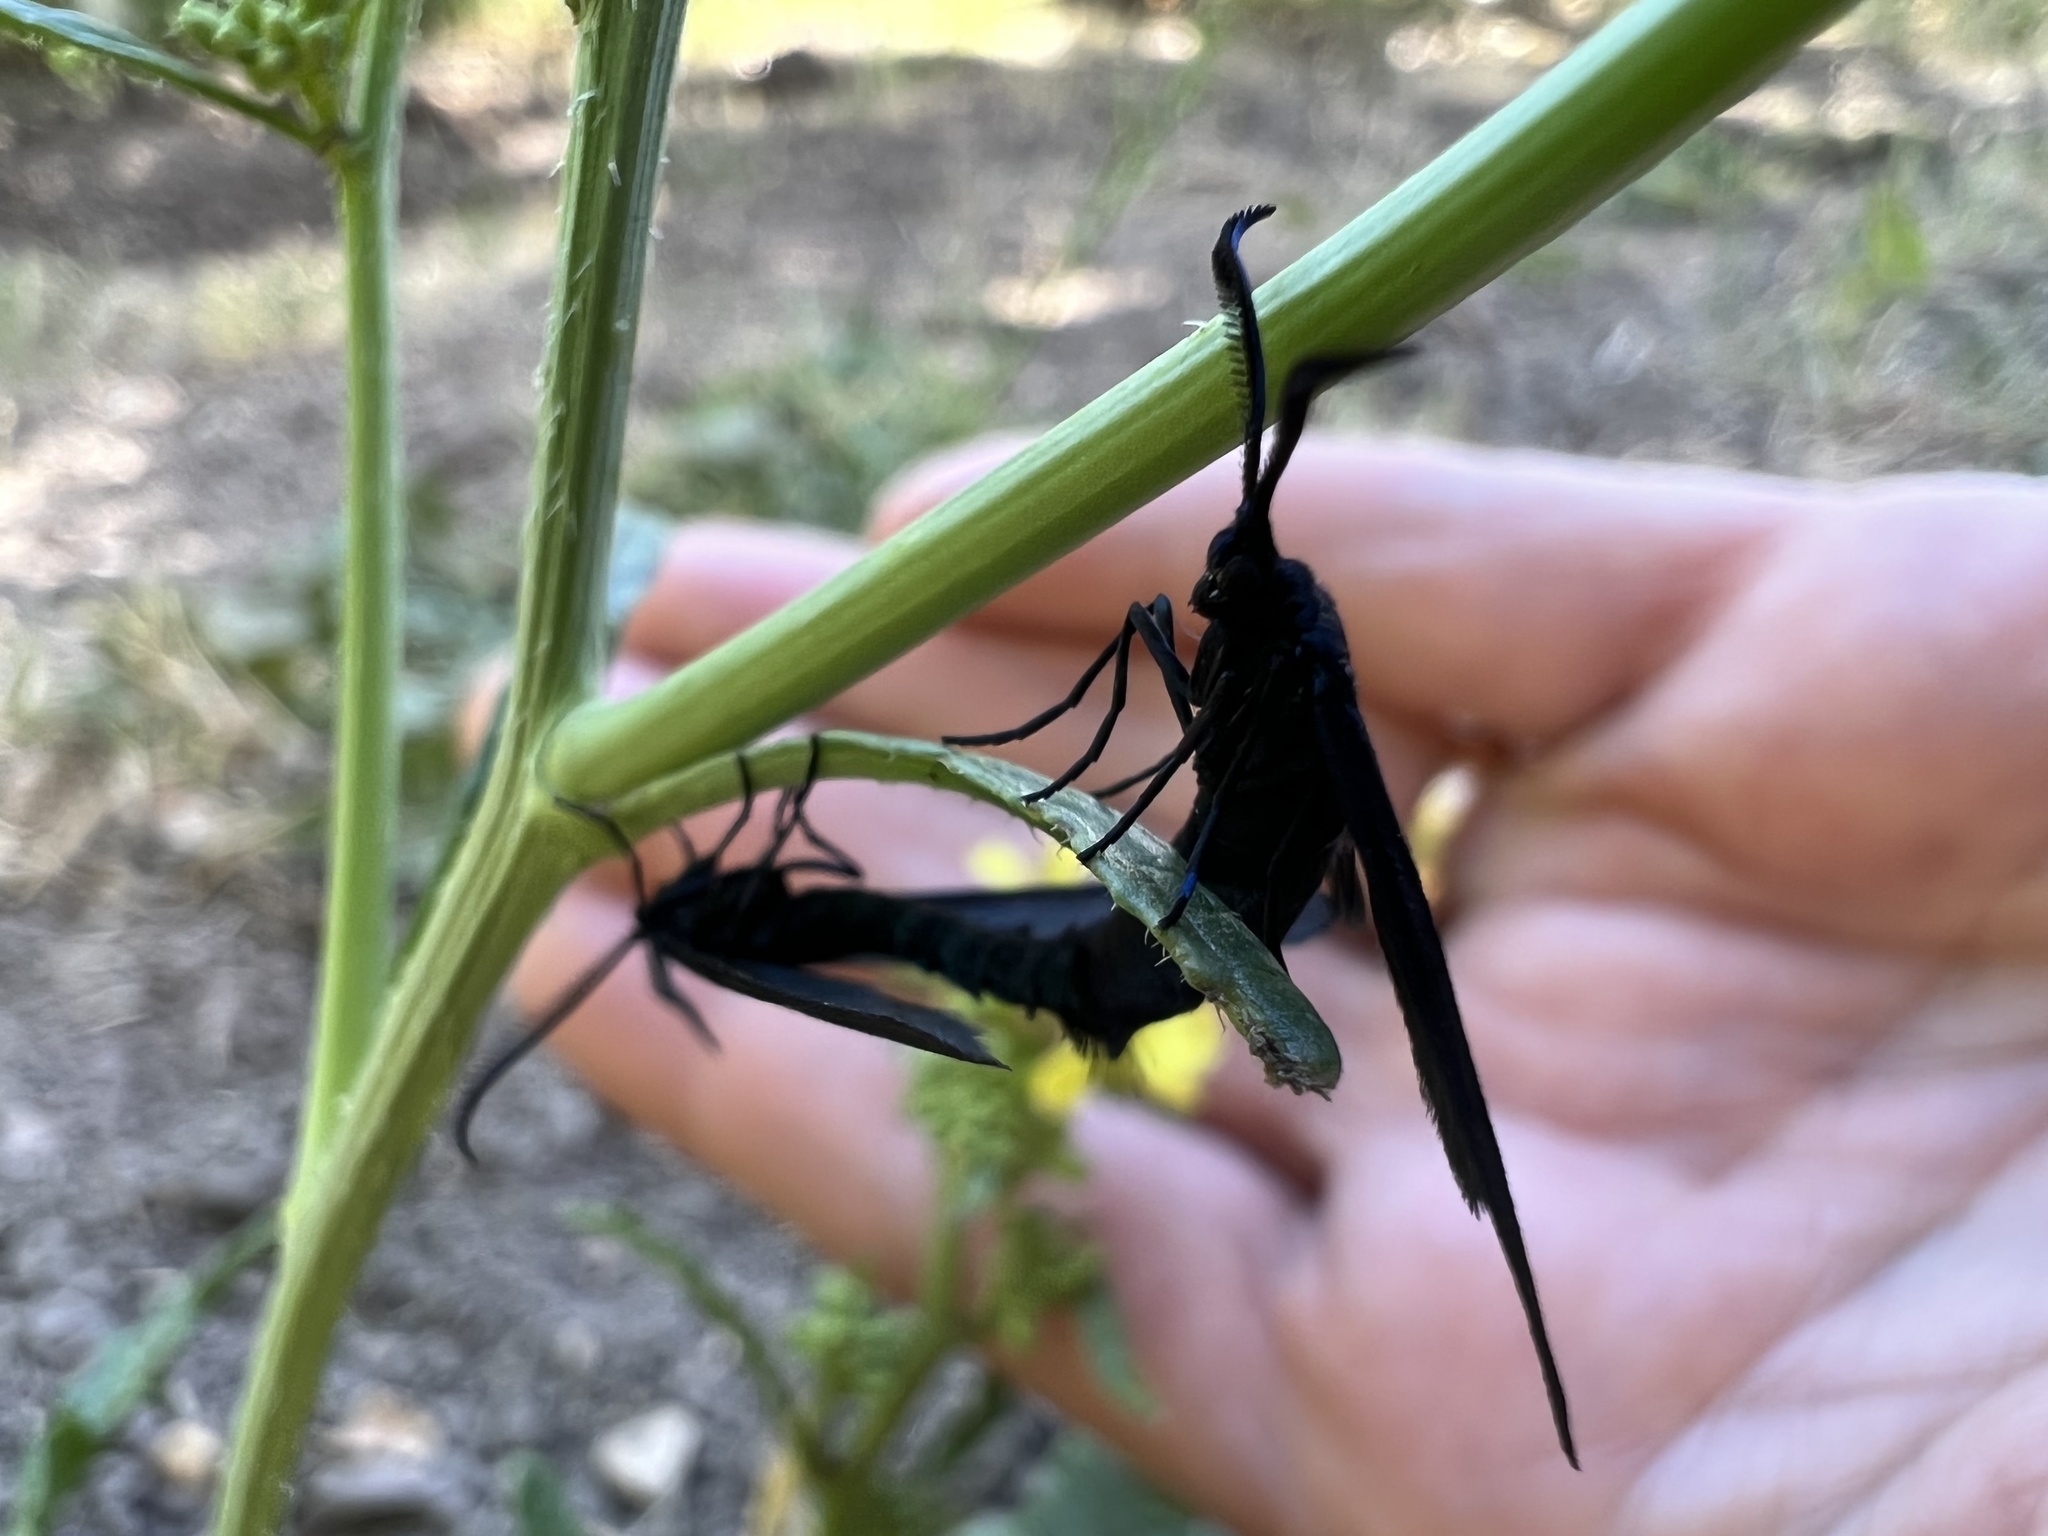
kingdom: Animalia
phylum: Arthropoda
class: Insecta
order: Lepidoptera
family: Zygaenidae
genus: Harrisina
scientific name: Harrisina metallica
